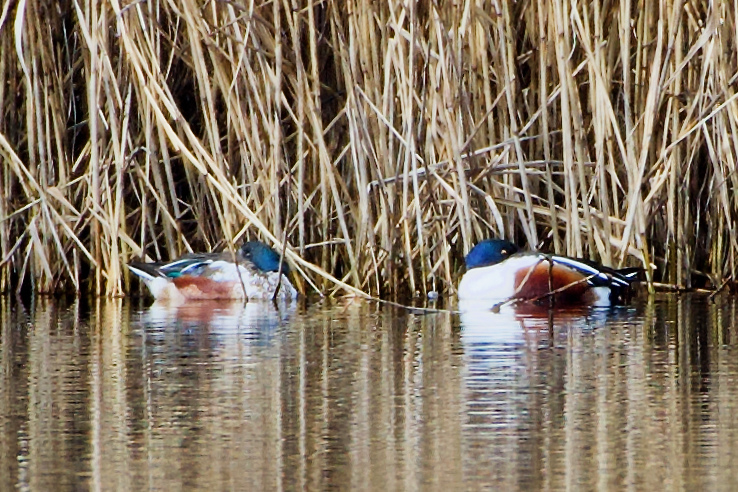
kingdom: Animalia
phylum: Chordata
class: Aves
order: Anseriformes
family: Anatidae
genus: Spatula
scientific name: Spatula clypeata
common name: Northern shoveler
